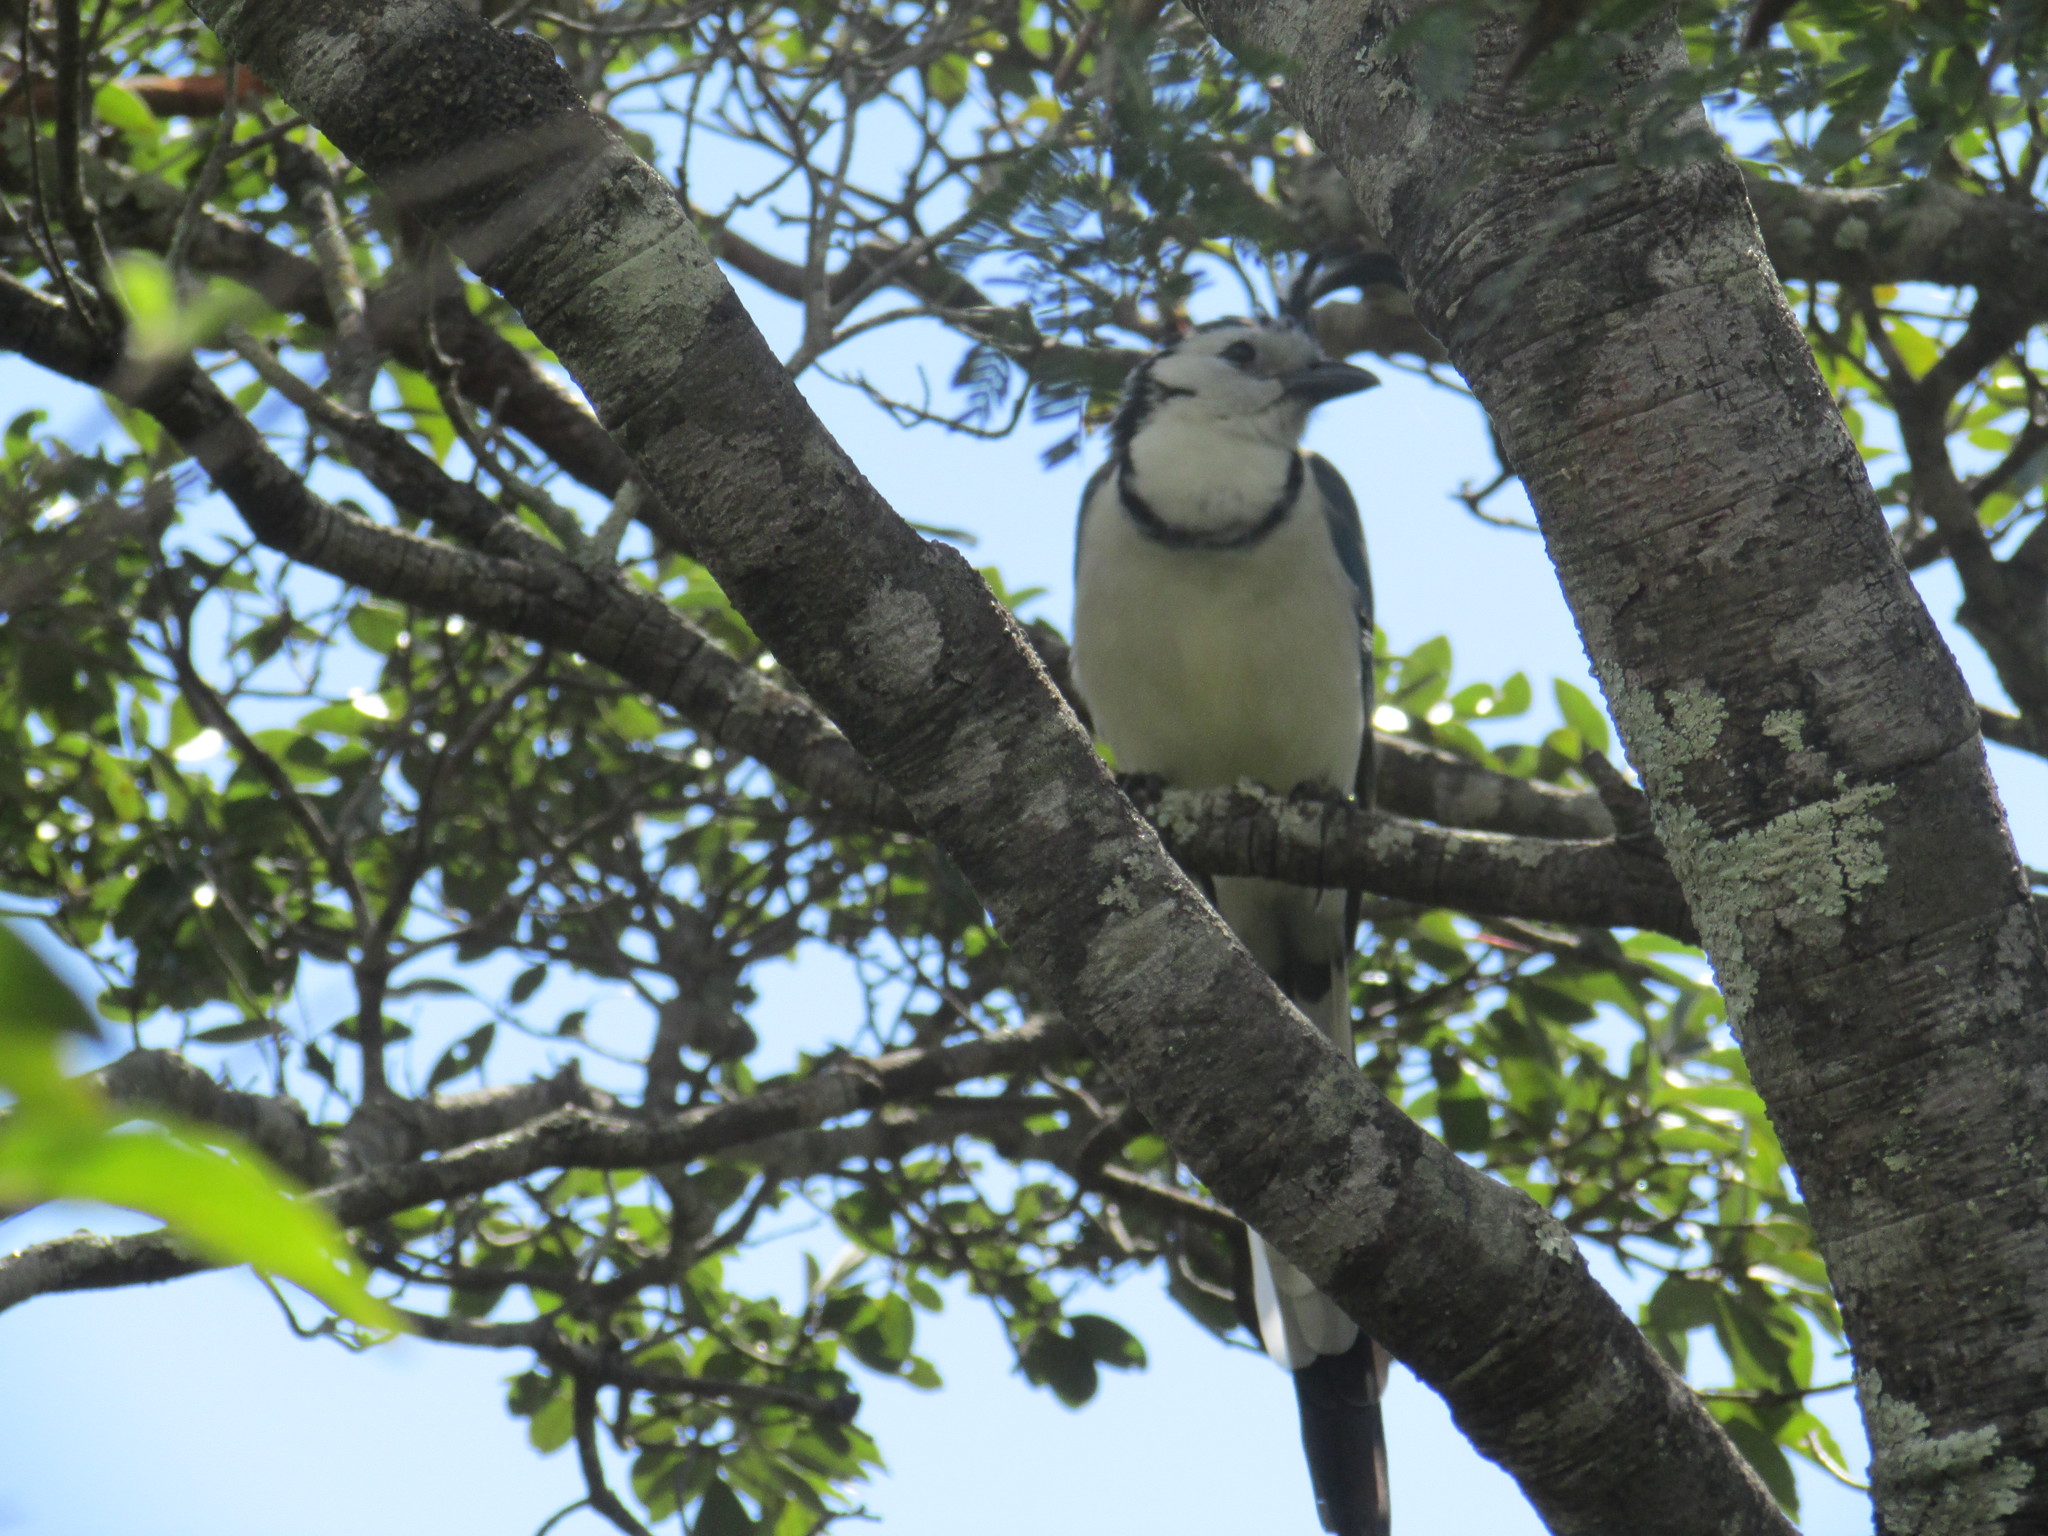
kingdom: Animalia
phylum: Chordata
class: Aves
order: Passeriformes
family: Corvidae
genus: Calocitta
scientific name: Calocitta formosa
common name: White-throated magpie-jay
